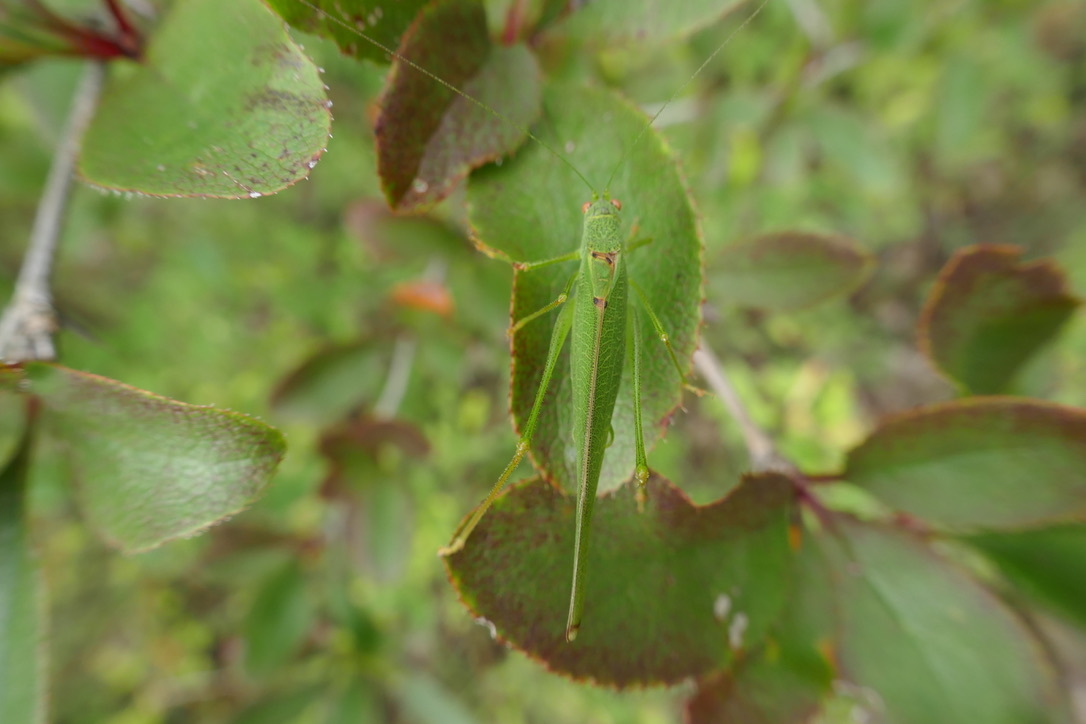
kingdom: Animalia
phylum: Arthropoda
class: Insecta
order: Orthoptera
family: Tettigoniidae
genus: Phaneroptera
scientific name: Phaneroptera nana
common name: Southern sickle bush-cricket
